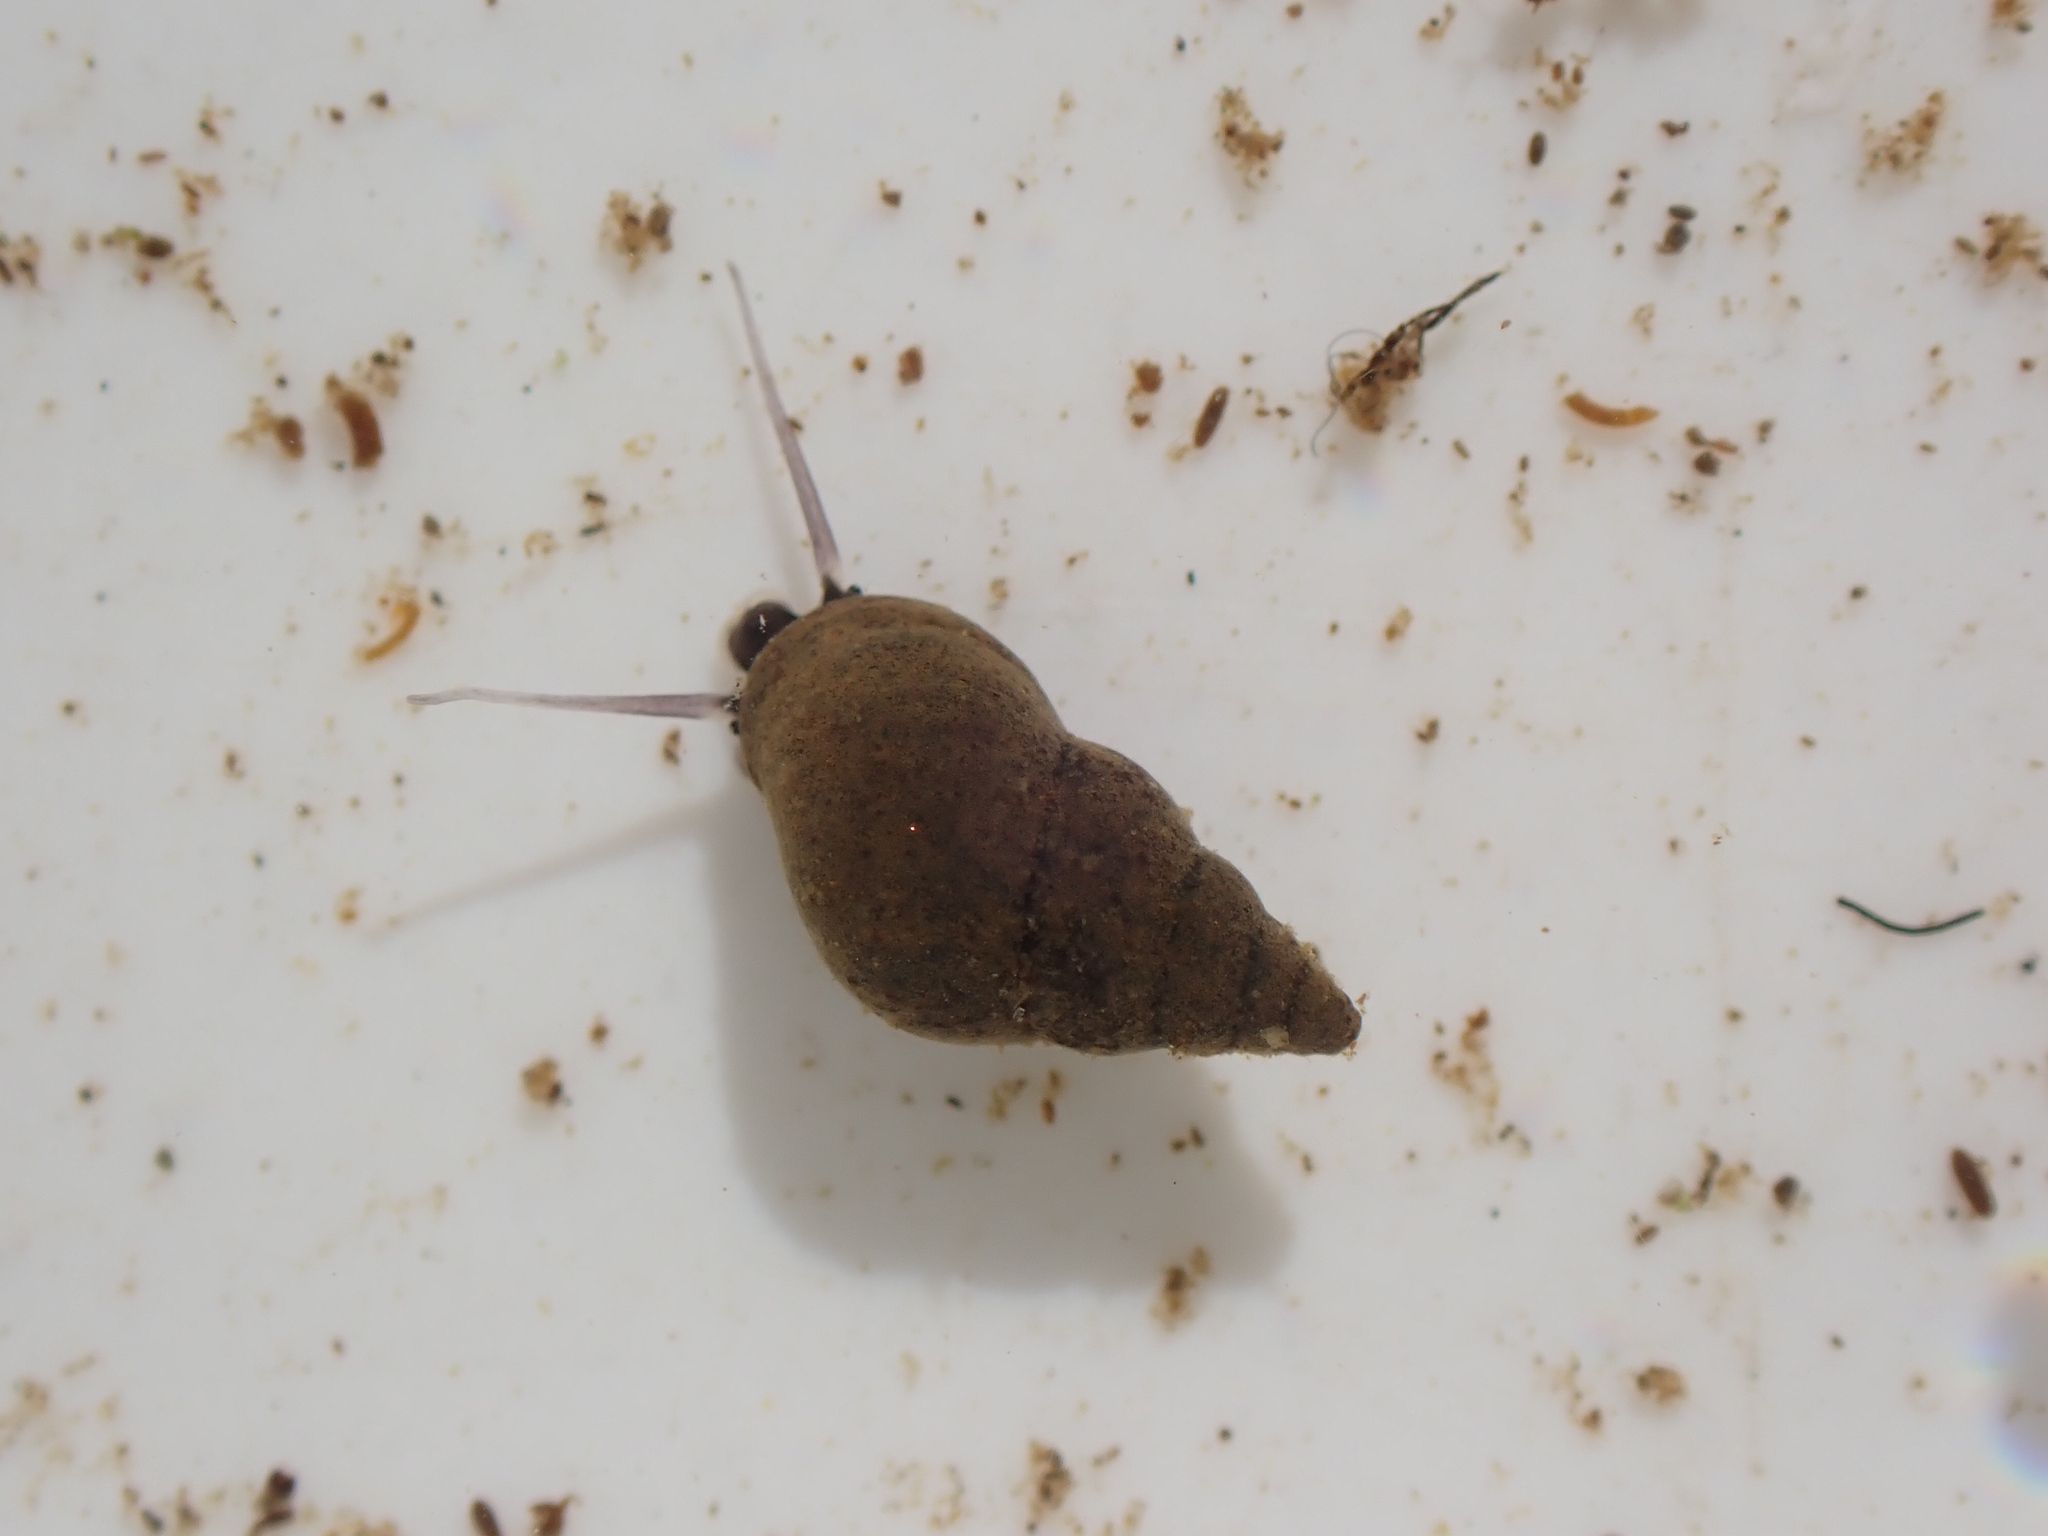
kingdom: Animalia
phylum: Mollusca
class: Gastropoda
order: Littorinimorpha
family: Tateidae
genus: Potamopyrgus
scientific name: Potamopyrgus antipodarum
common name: Jenkins' spire snail
